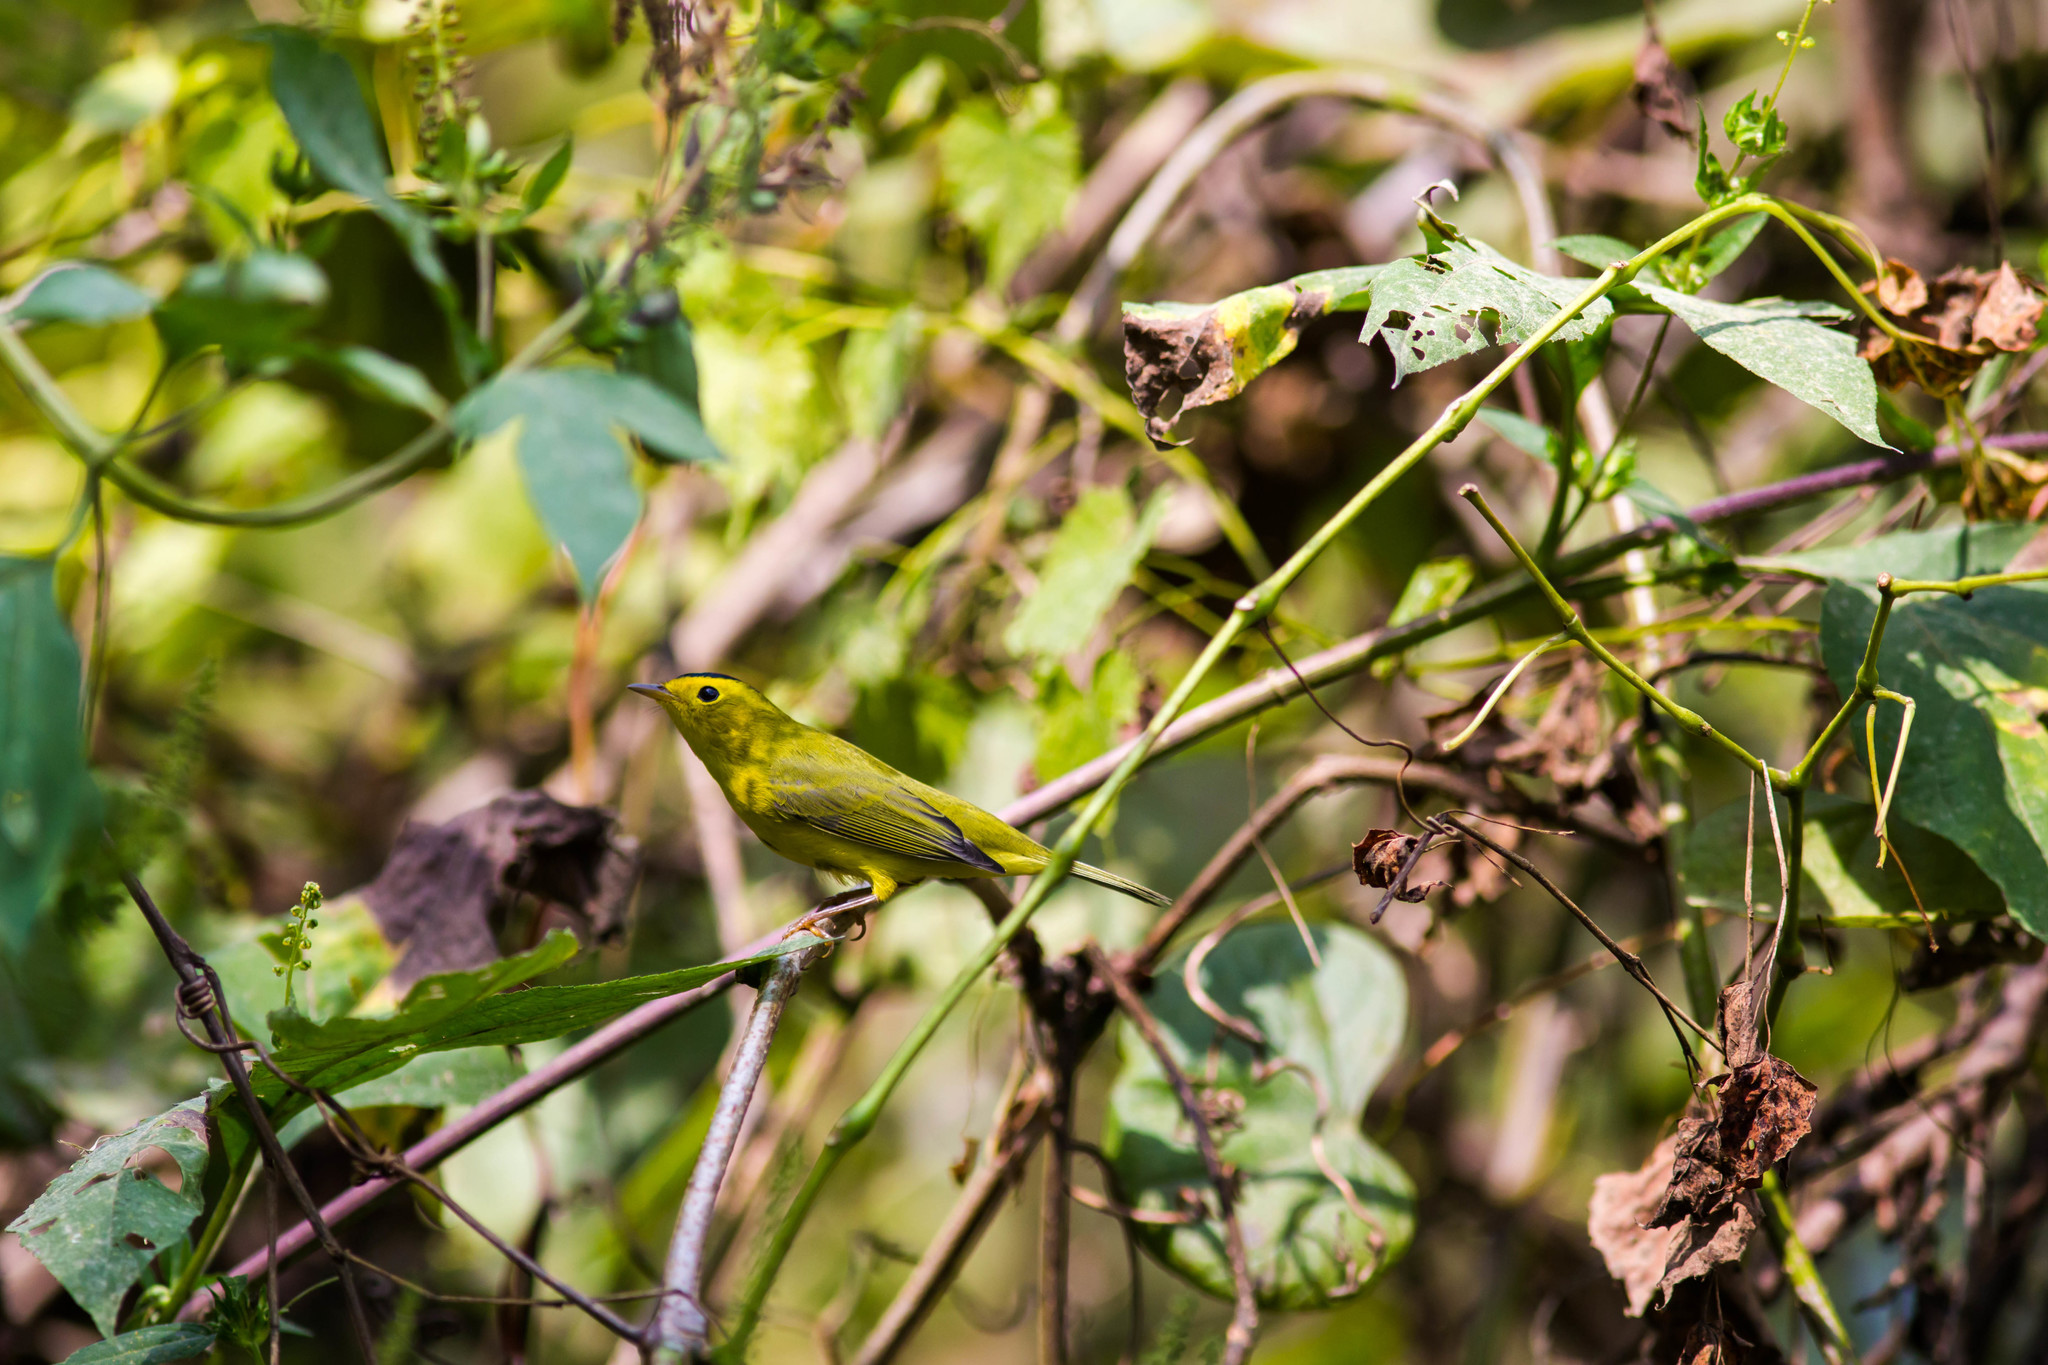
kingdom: Animalia
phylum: Chordata
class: Aves
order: Passeriformes
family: Parulidae
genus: Cardellina
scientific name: Cardellina pusilla
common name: Wilson's warbler
